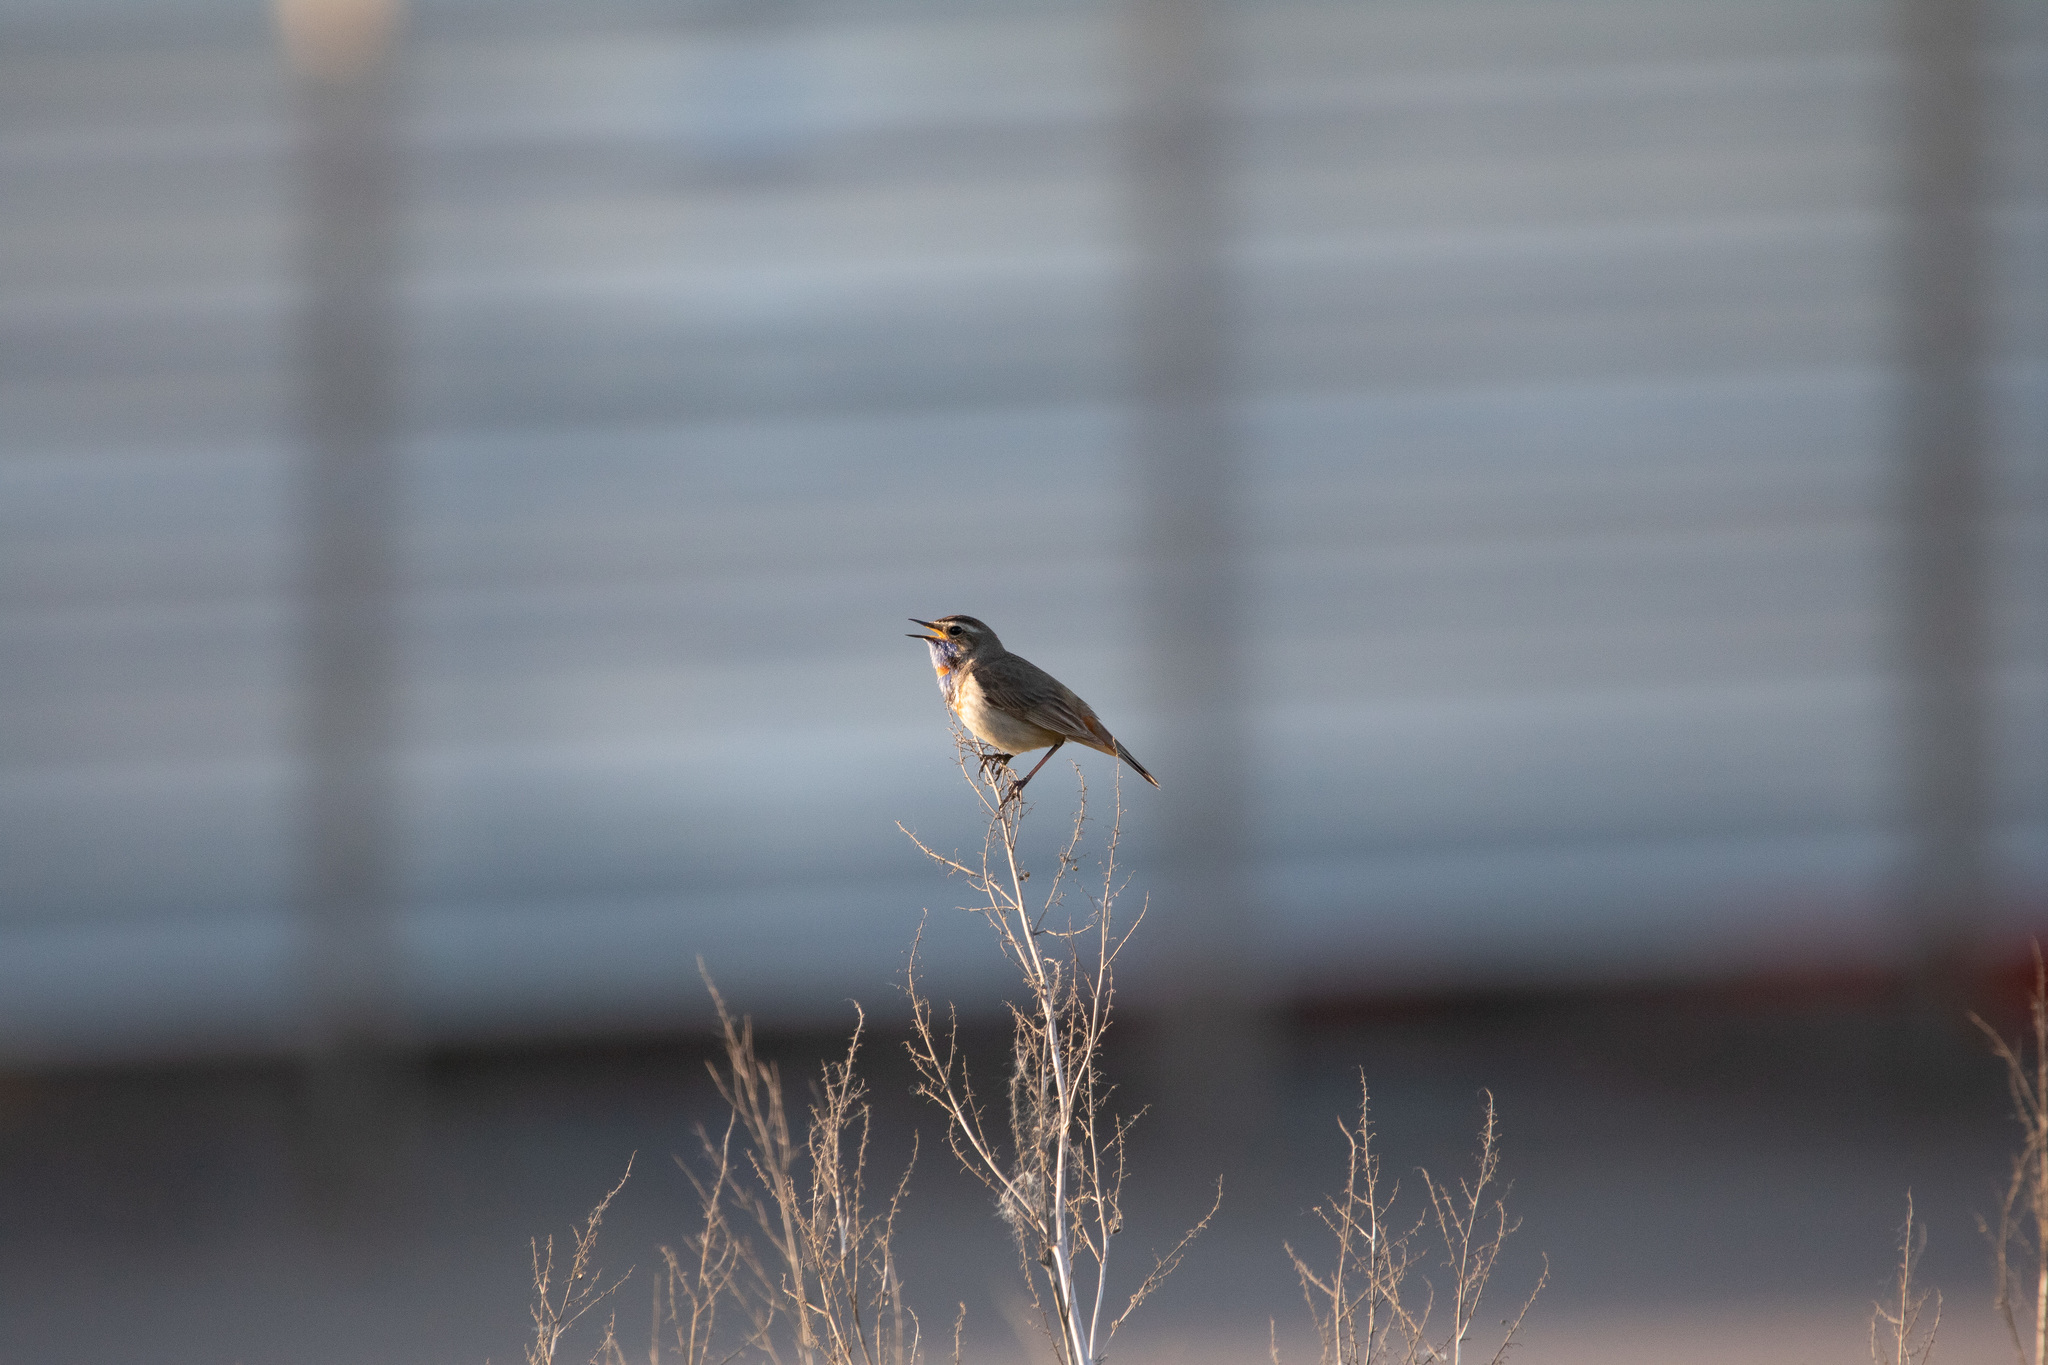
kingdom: Animalia
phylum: Chordata
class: Aves
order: Passeriformes
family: Muscicapidae
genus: Luscinia
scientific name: Luscinia svecica
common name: Bluethroat
